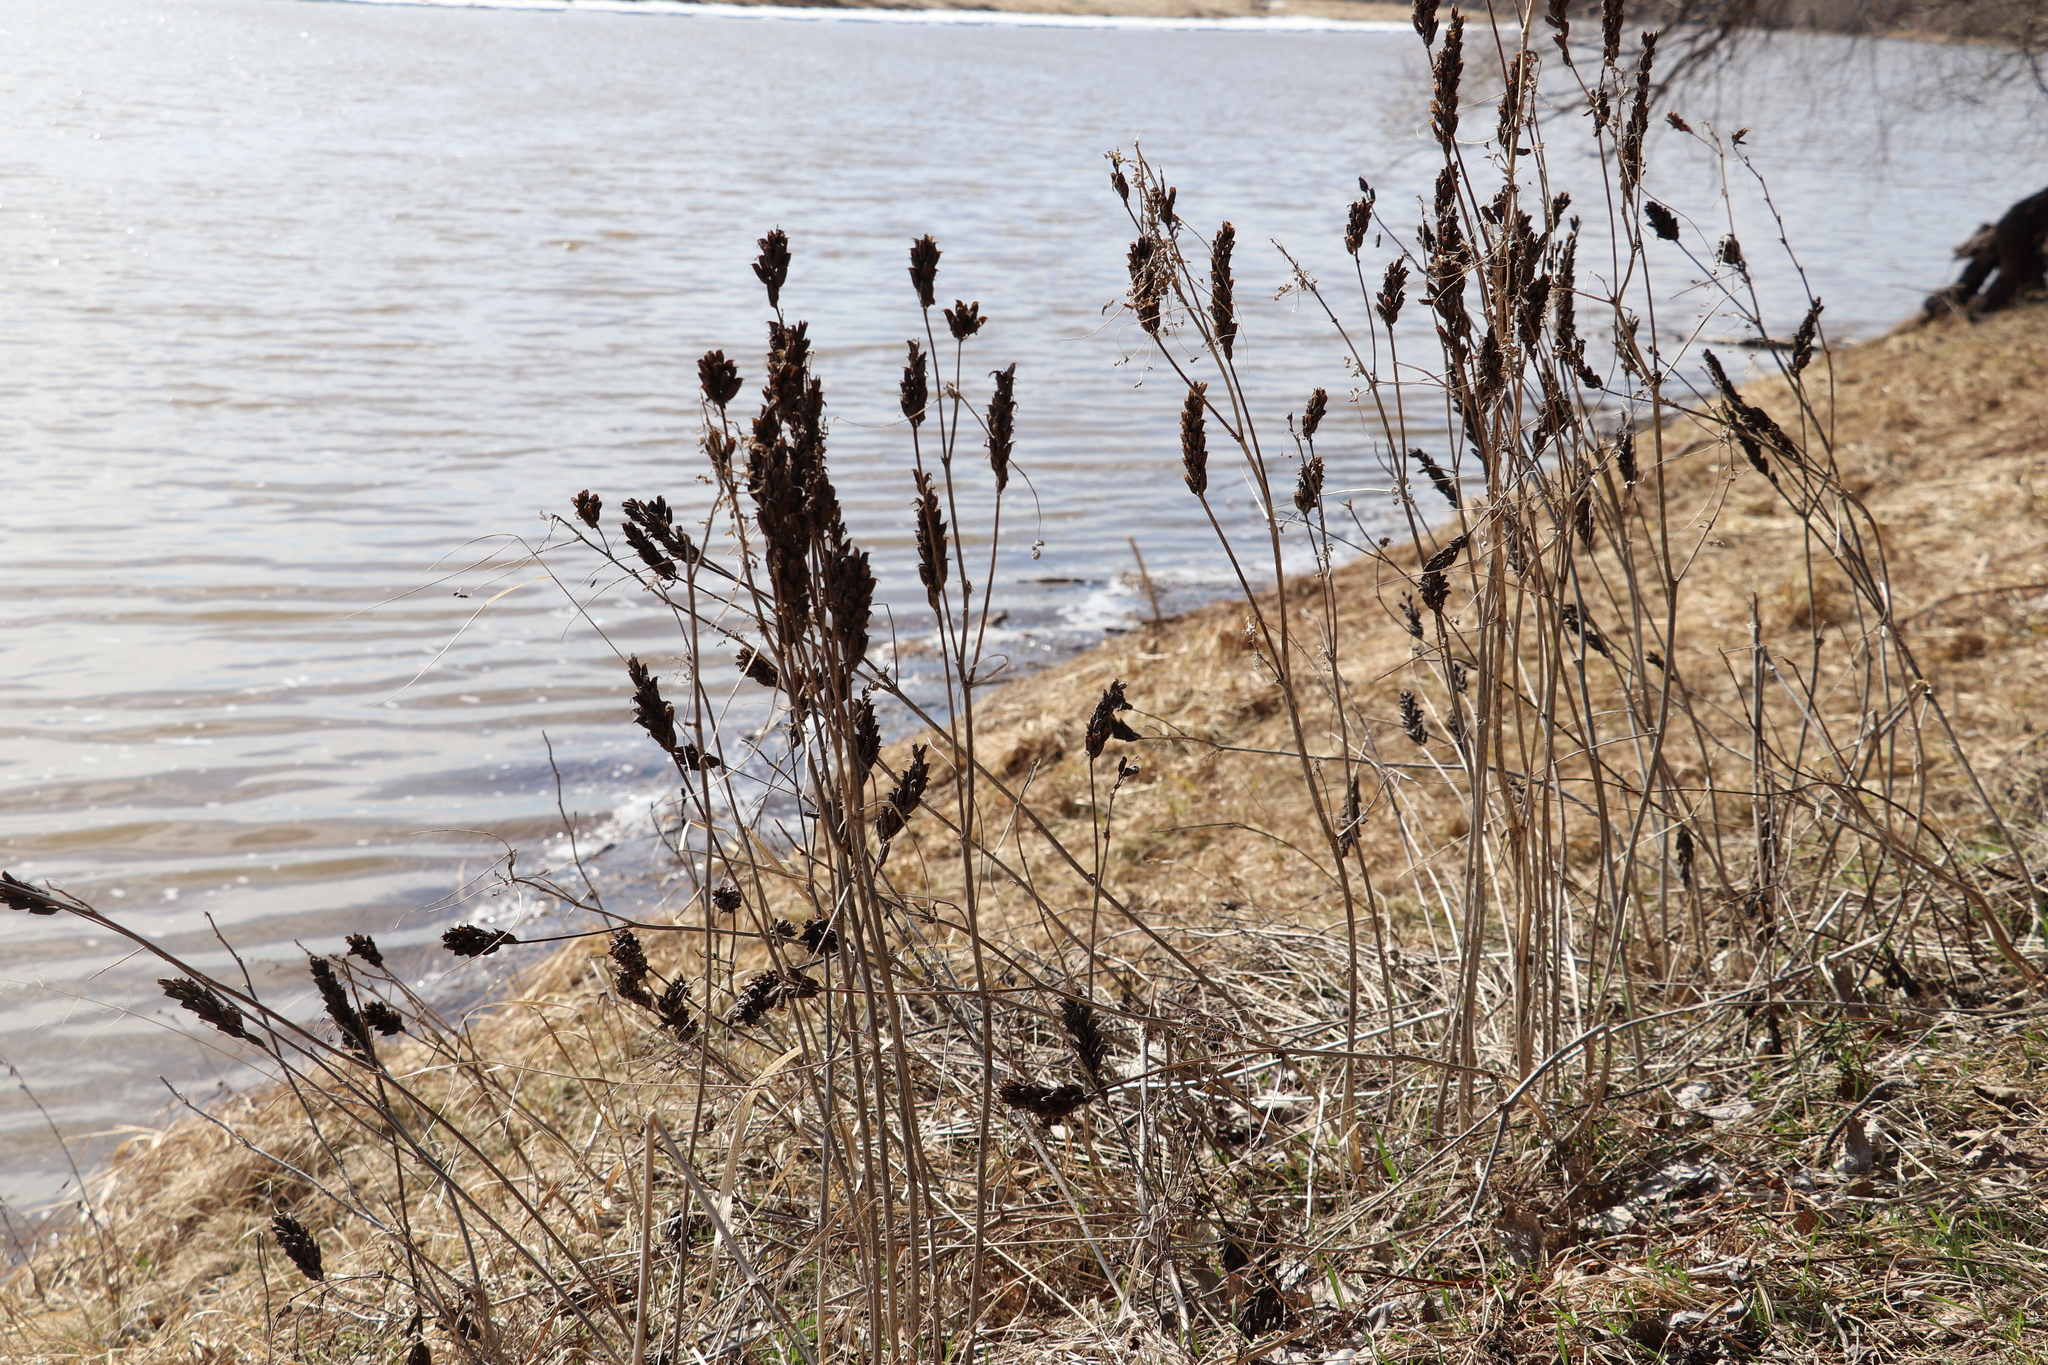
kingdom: Plantae
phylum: Tracheophyta
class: Magnoliopsida
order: Fabales
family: Fabaceae
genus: Astragalus
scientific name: Astragalus uliginosus
